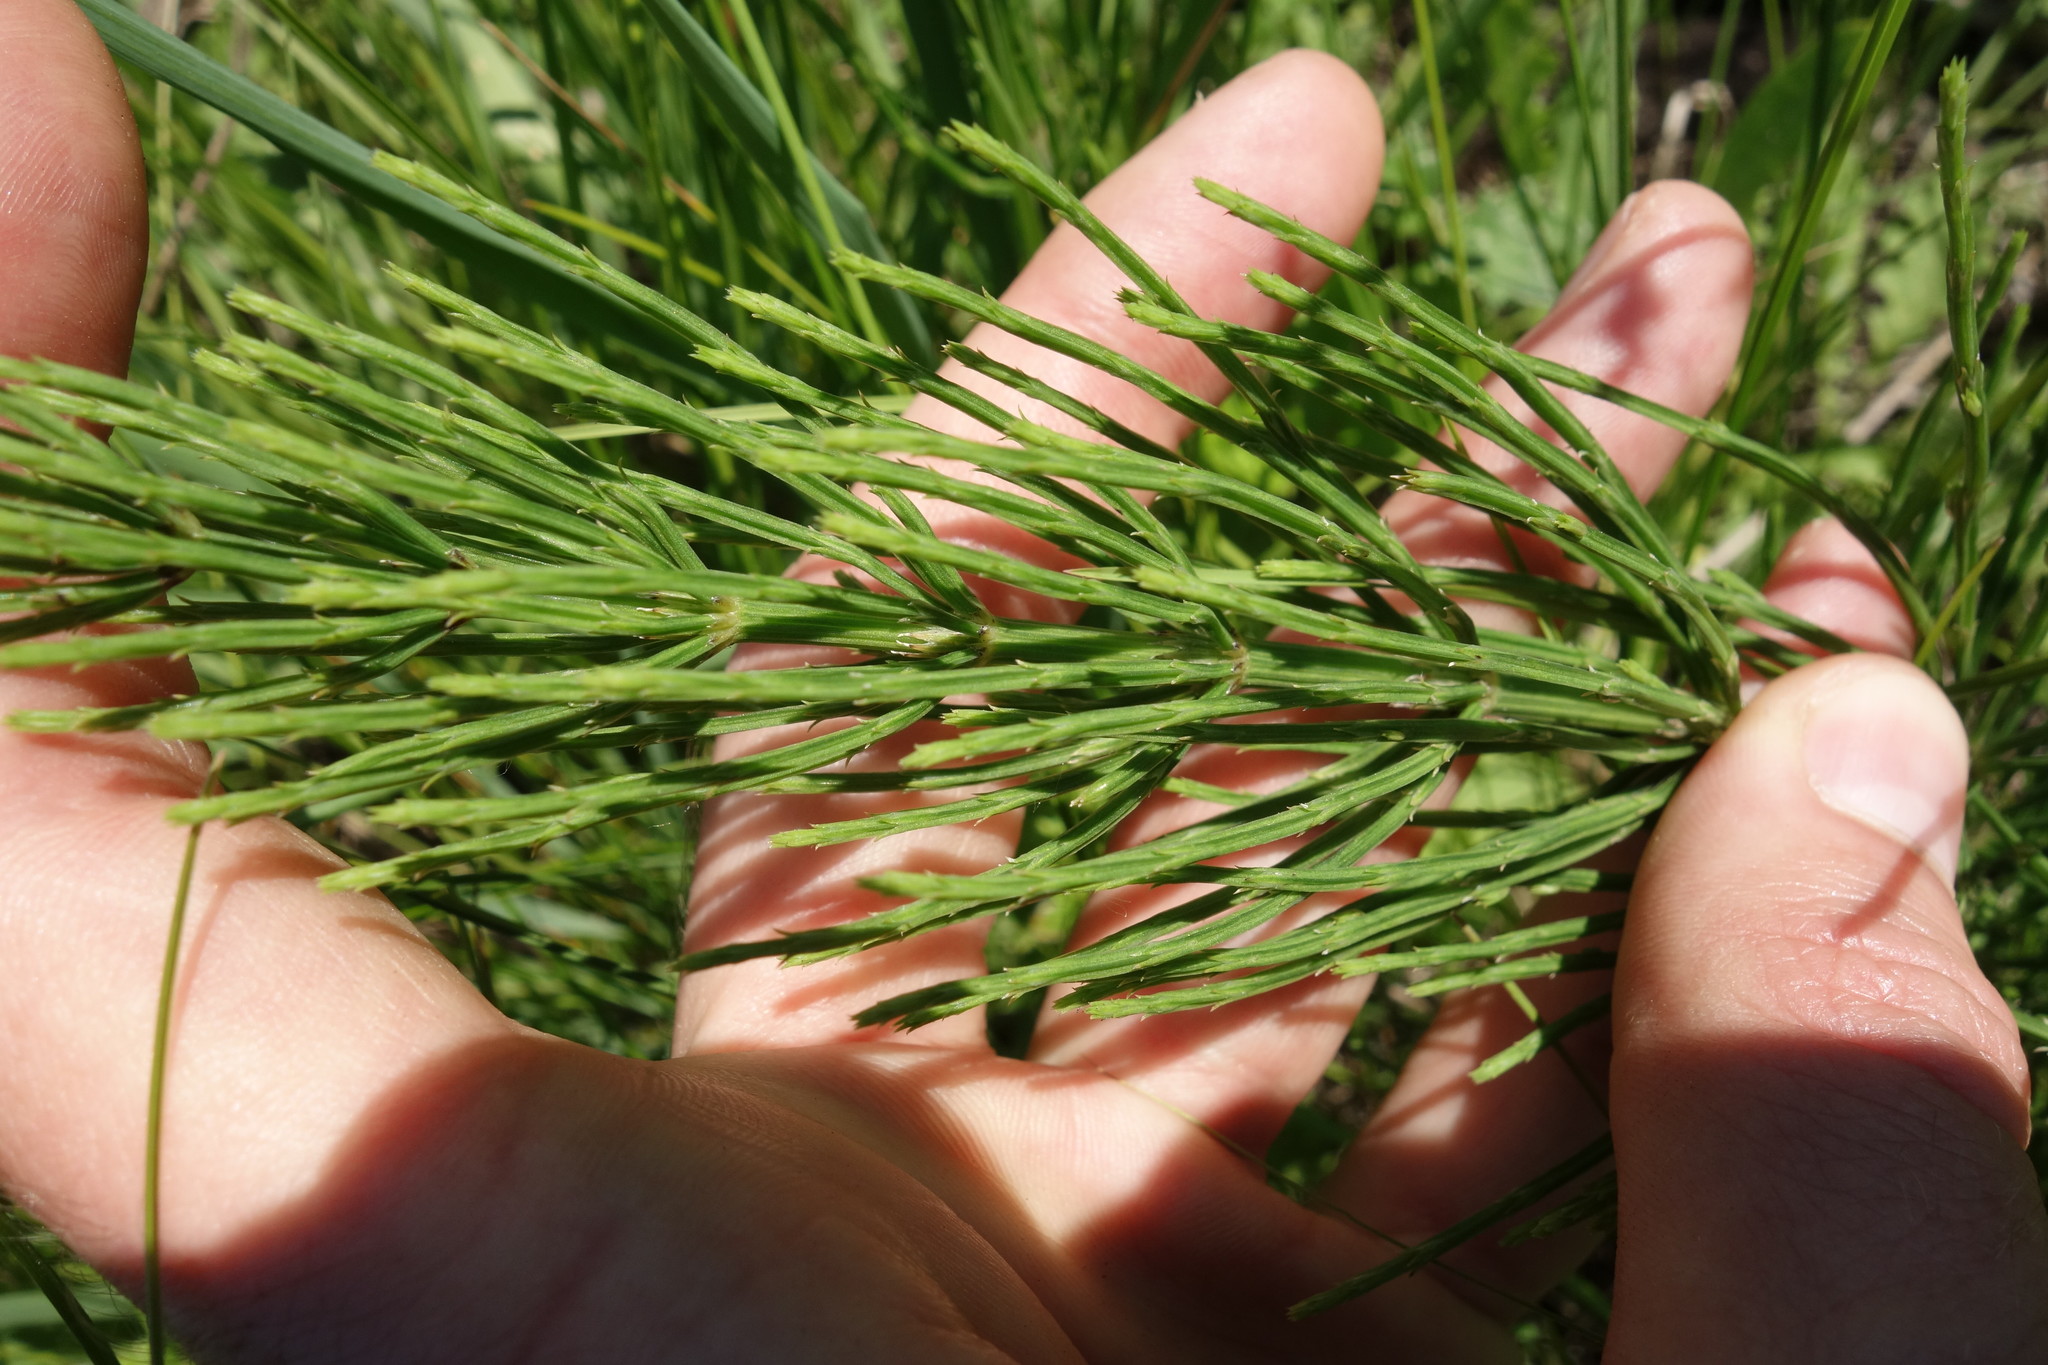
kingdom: Plantae
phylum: Tracheophyta
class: Polypodiopsida
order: Equisetales
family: Equisetaceae
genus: Equisetum
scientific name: Equisetum arvense
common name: Field horsetail
